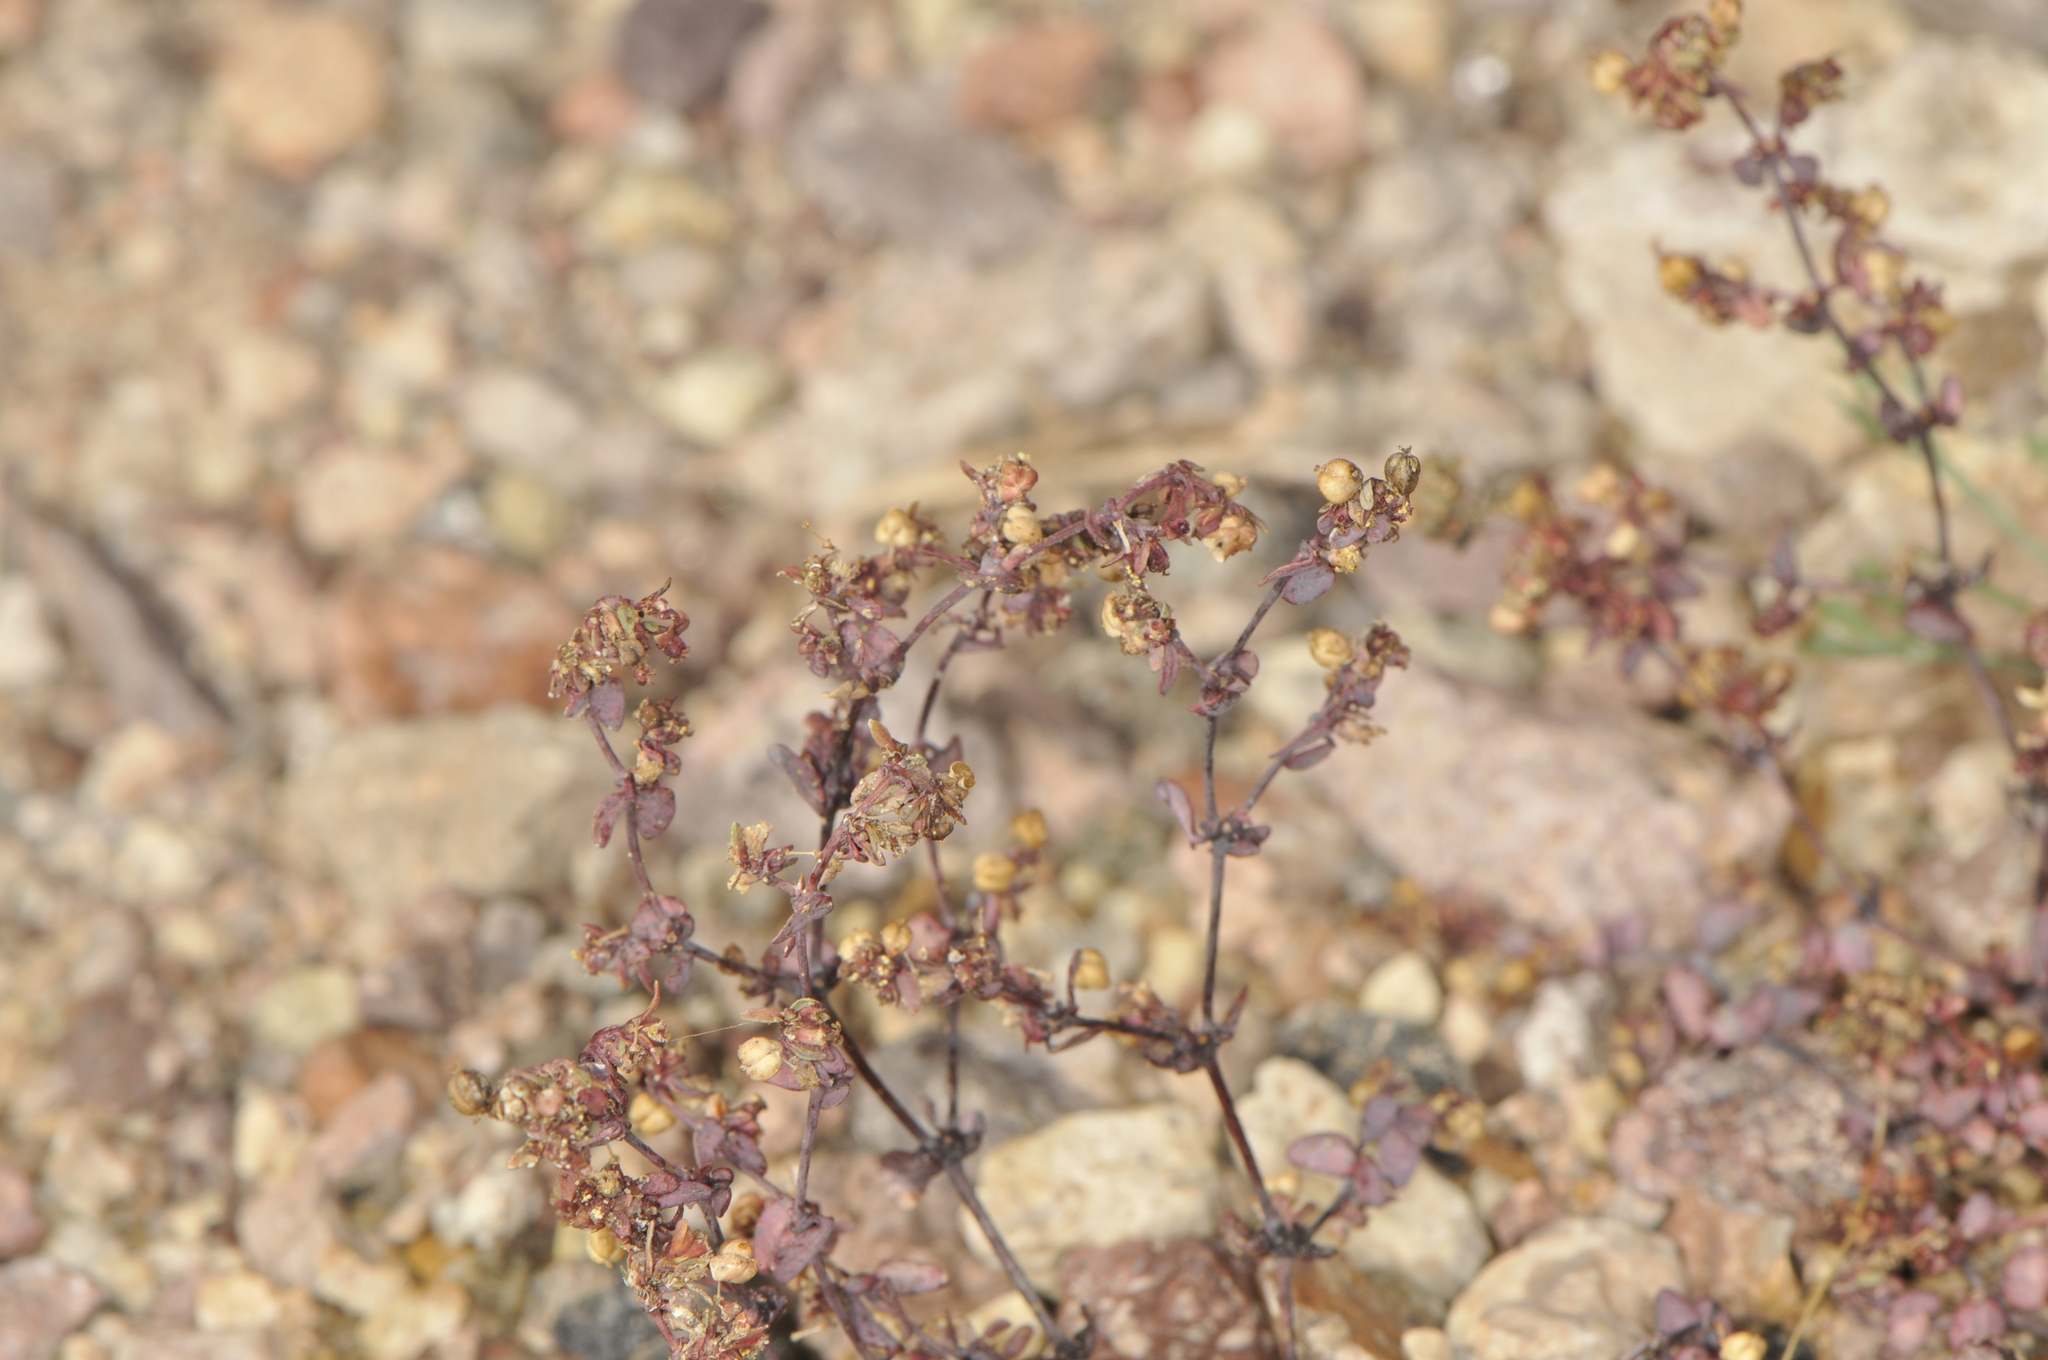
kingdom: Plantae
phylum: Tracheophyta
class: Magnoliopsida
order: Malpighiales
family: Euphorbiaceae
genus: Euphorbia
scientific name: Euphorbia parishii
